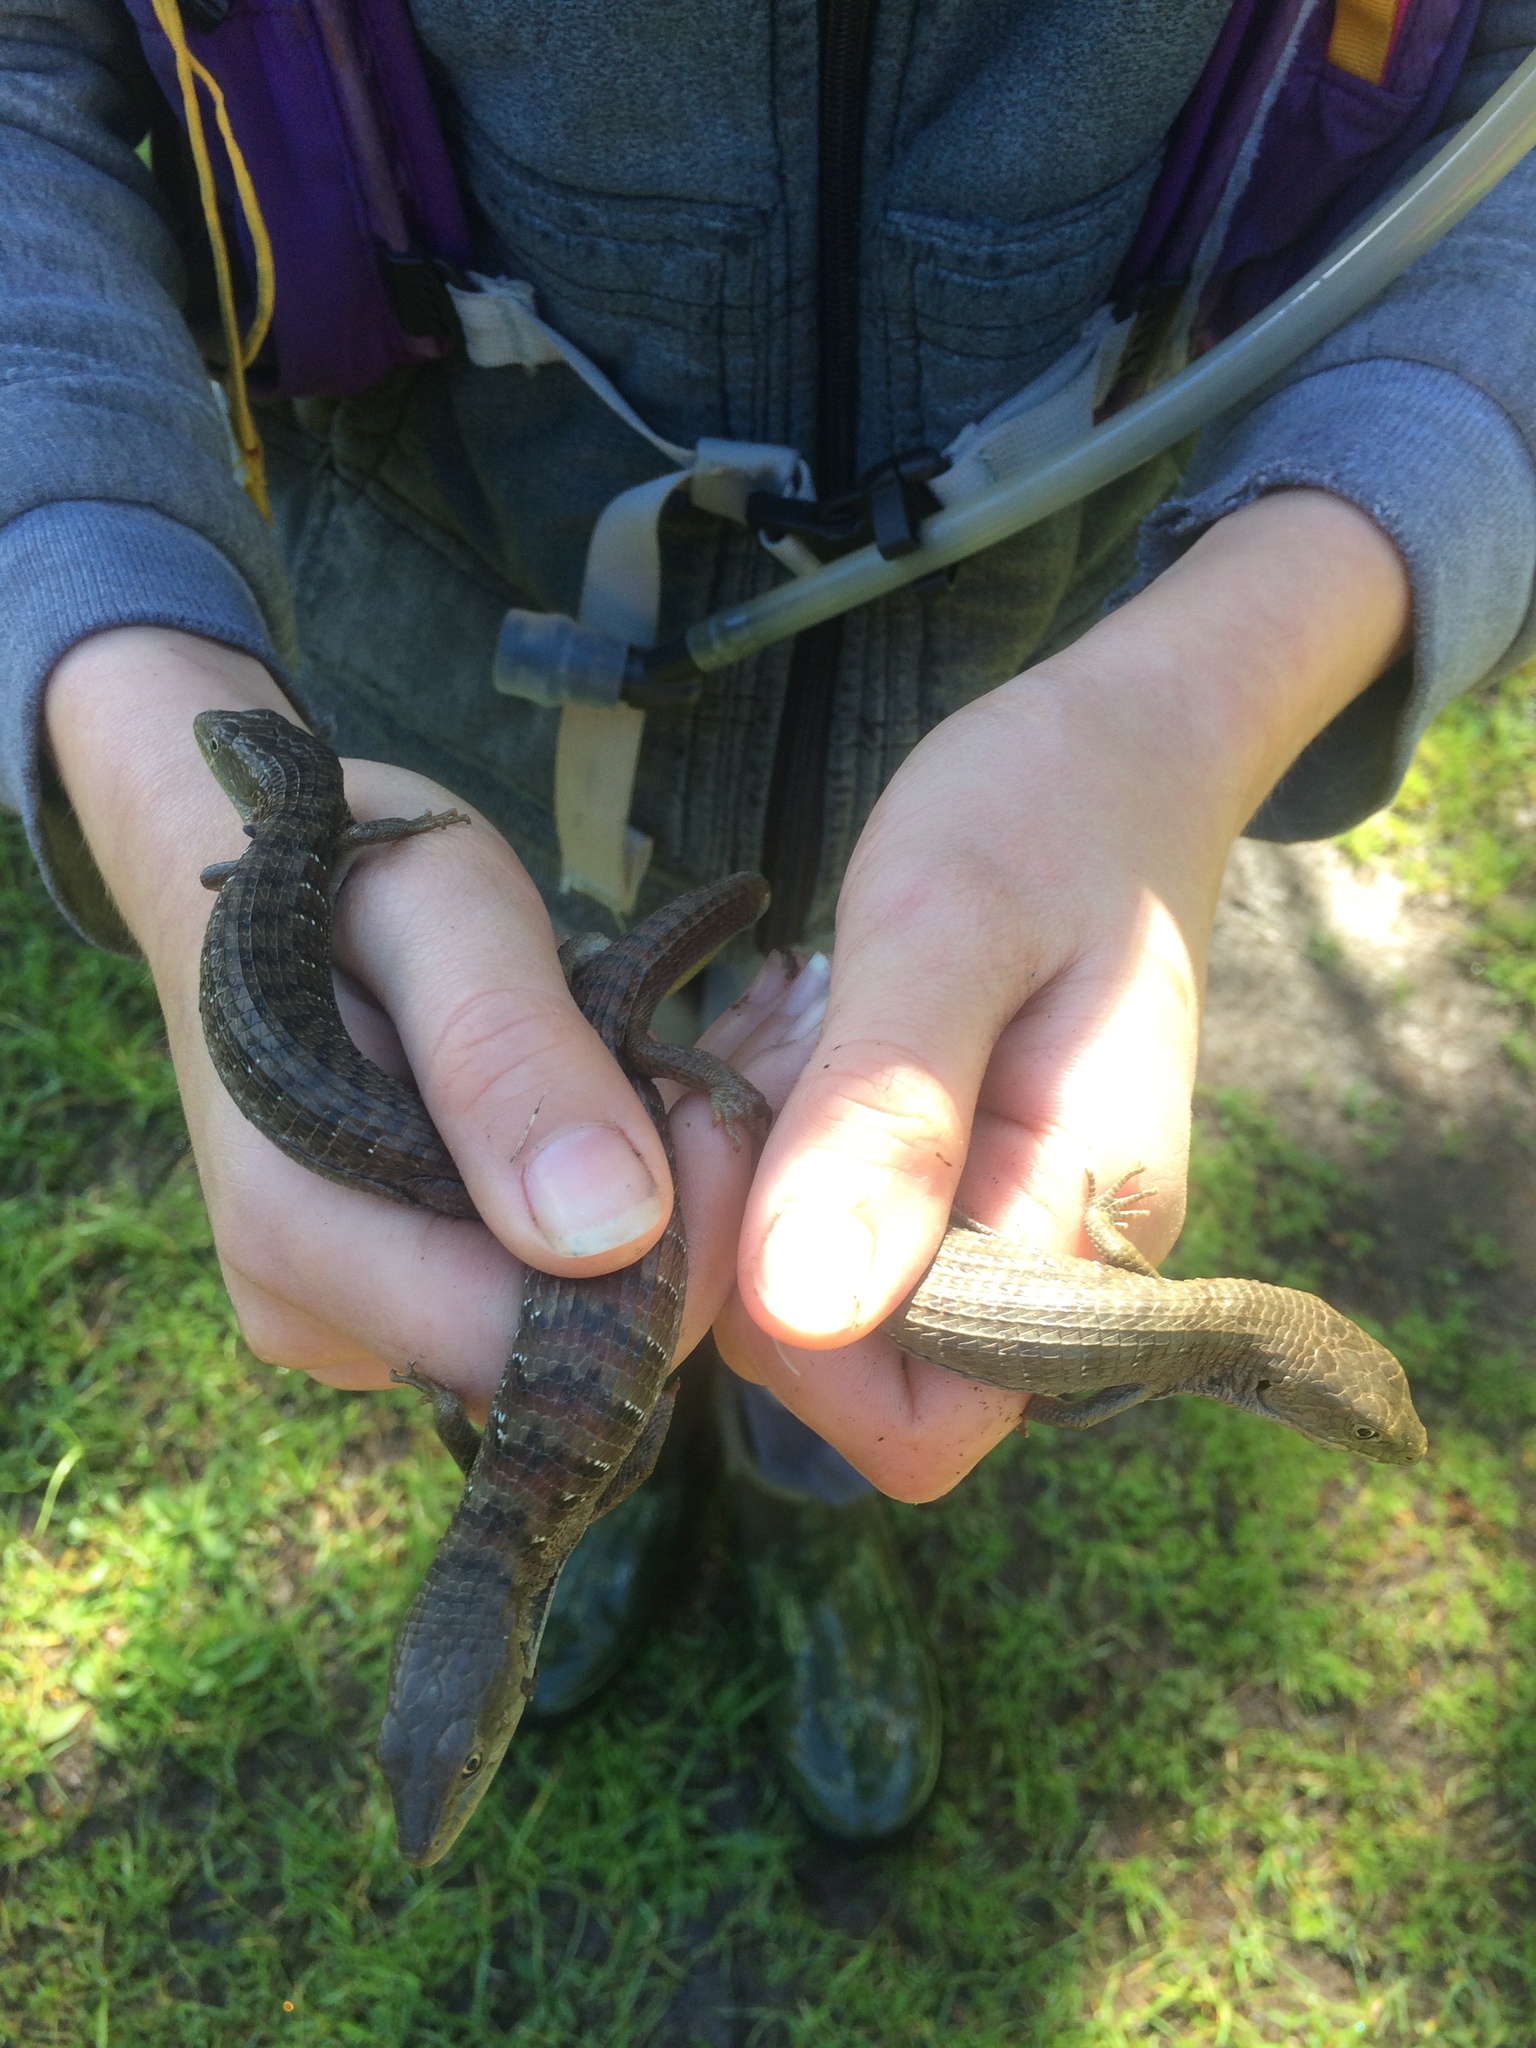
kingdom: Animalia
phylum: Chordata
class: Squamata
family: Anguidae
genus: Elgaria
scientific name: Elgaria multicarinata
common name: Southern alligator lizard
